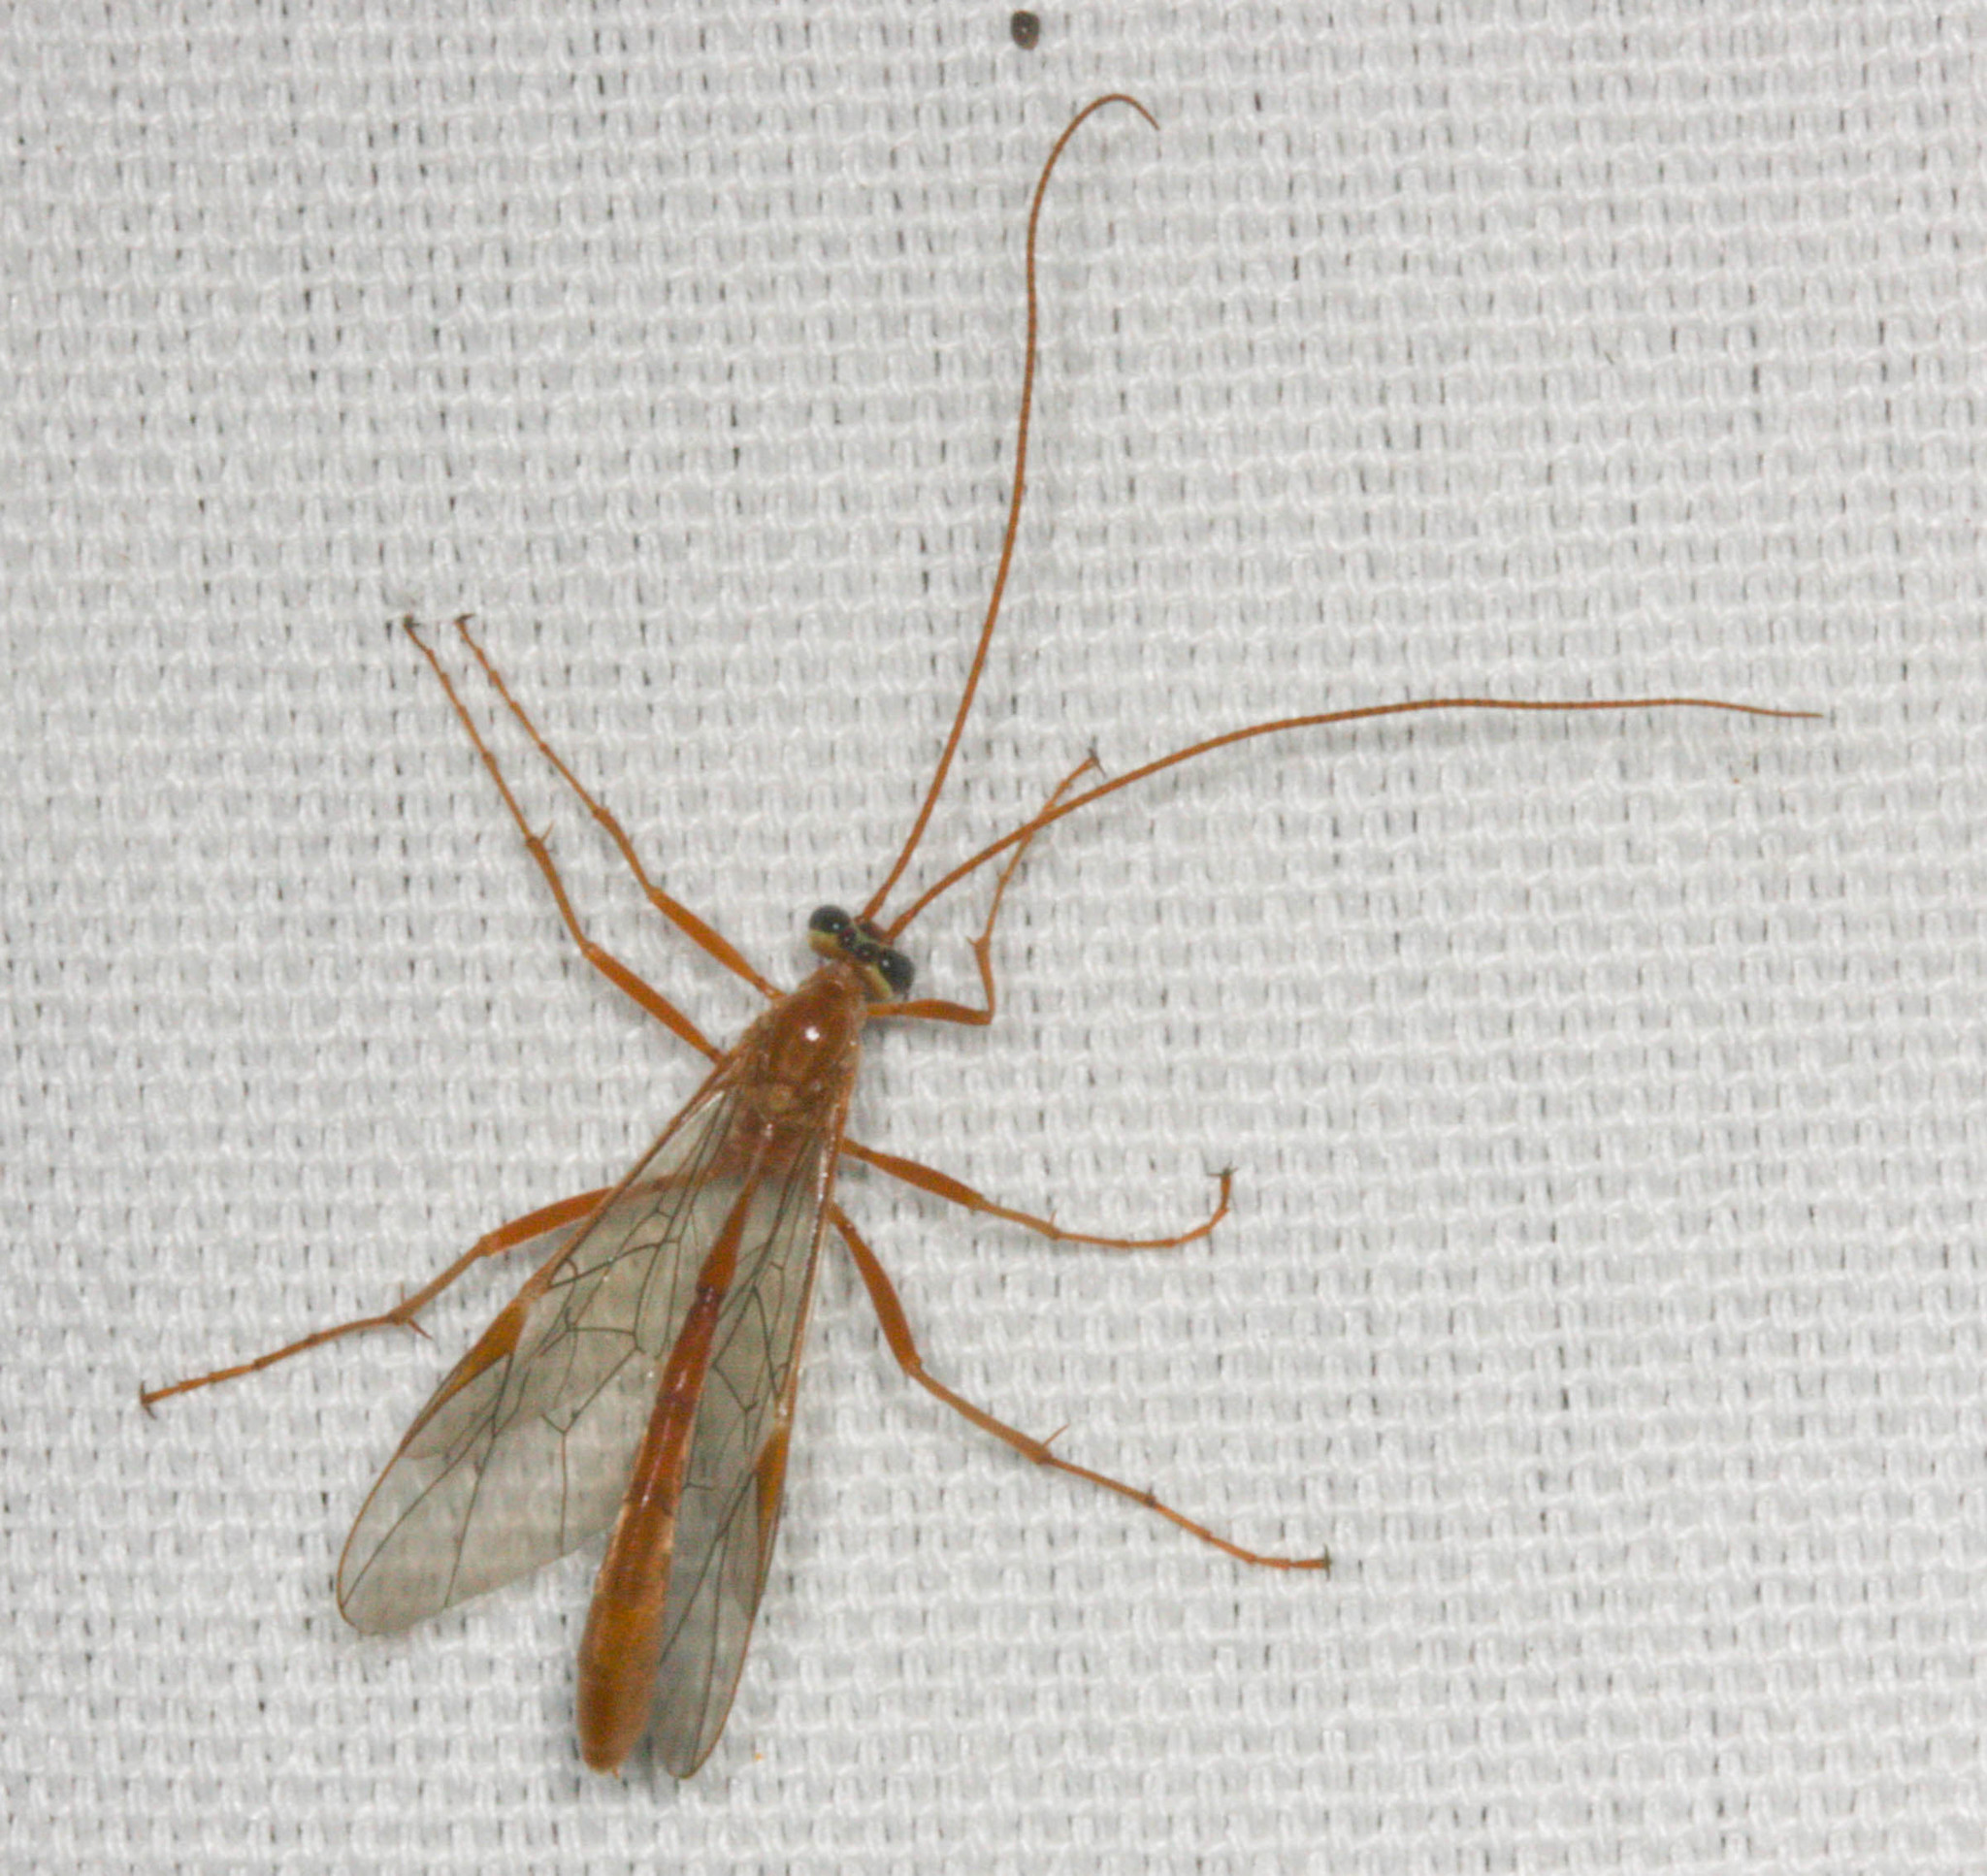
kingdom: Animalia
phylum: Arthropoda
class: Insecta
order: Hymenoptera
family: Ichneumonidae
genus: Ophion
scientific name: Ophion
